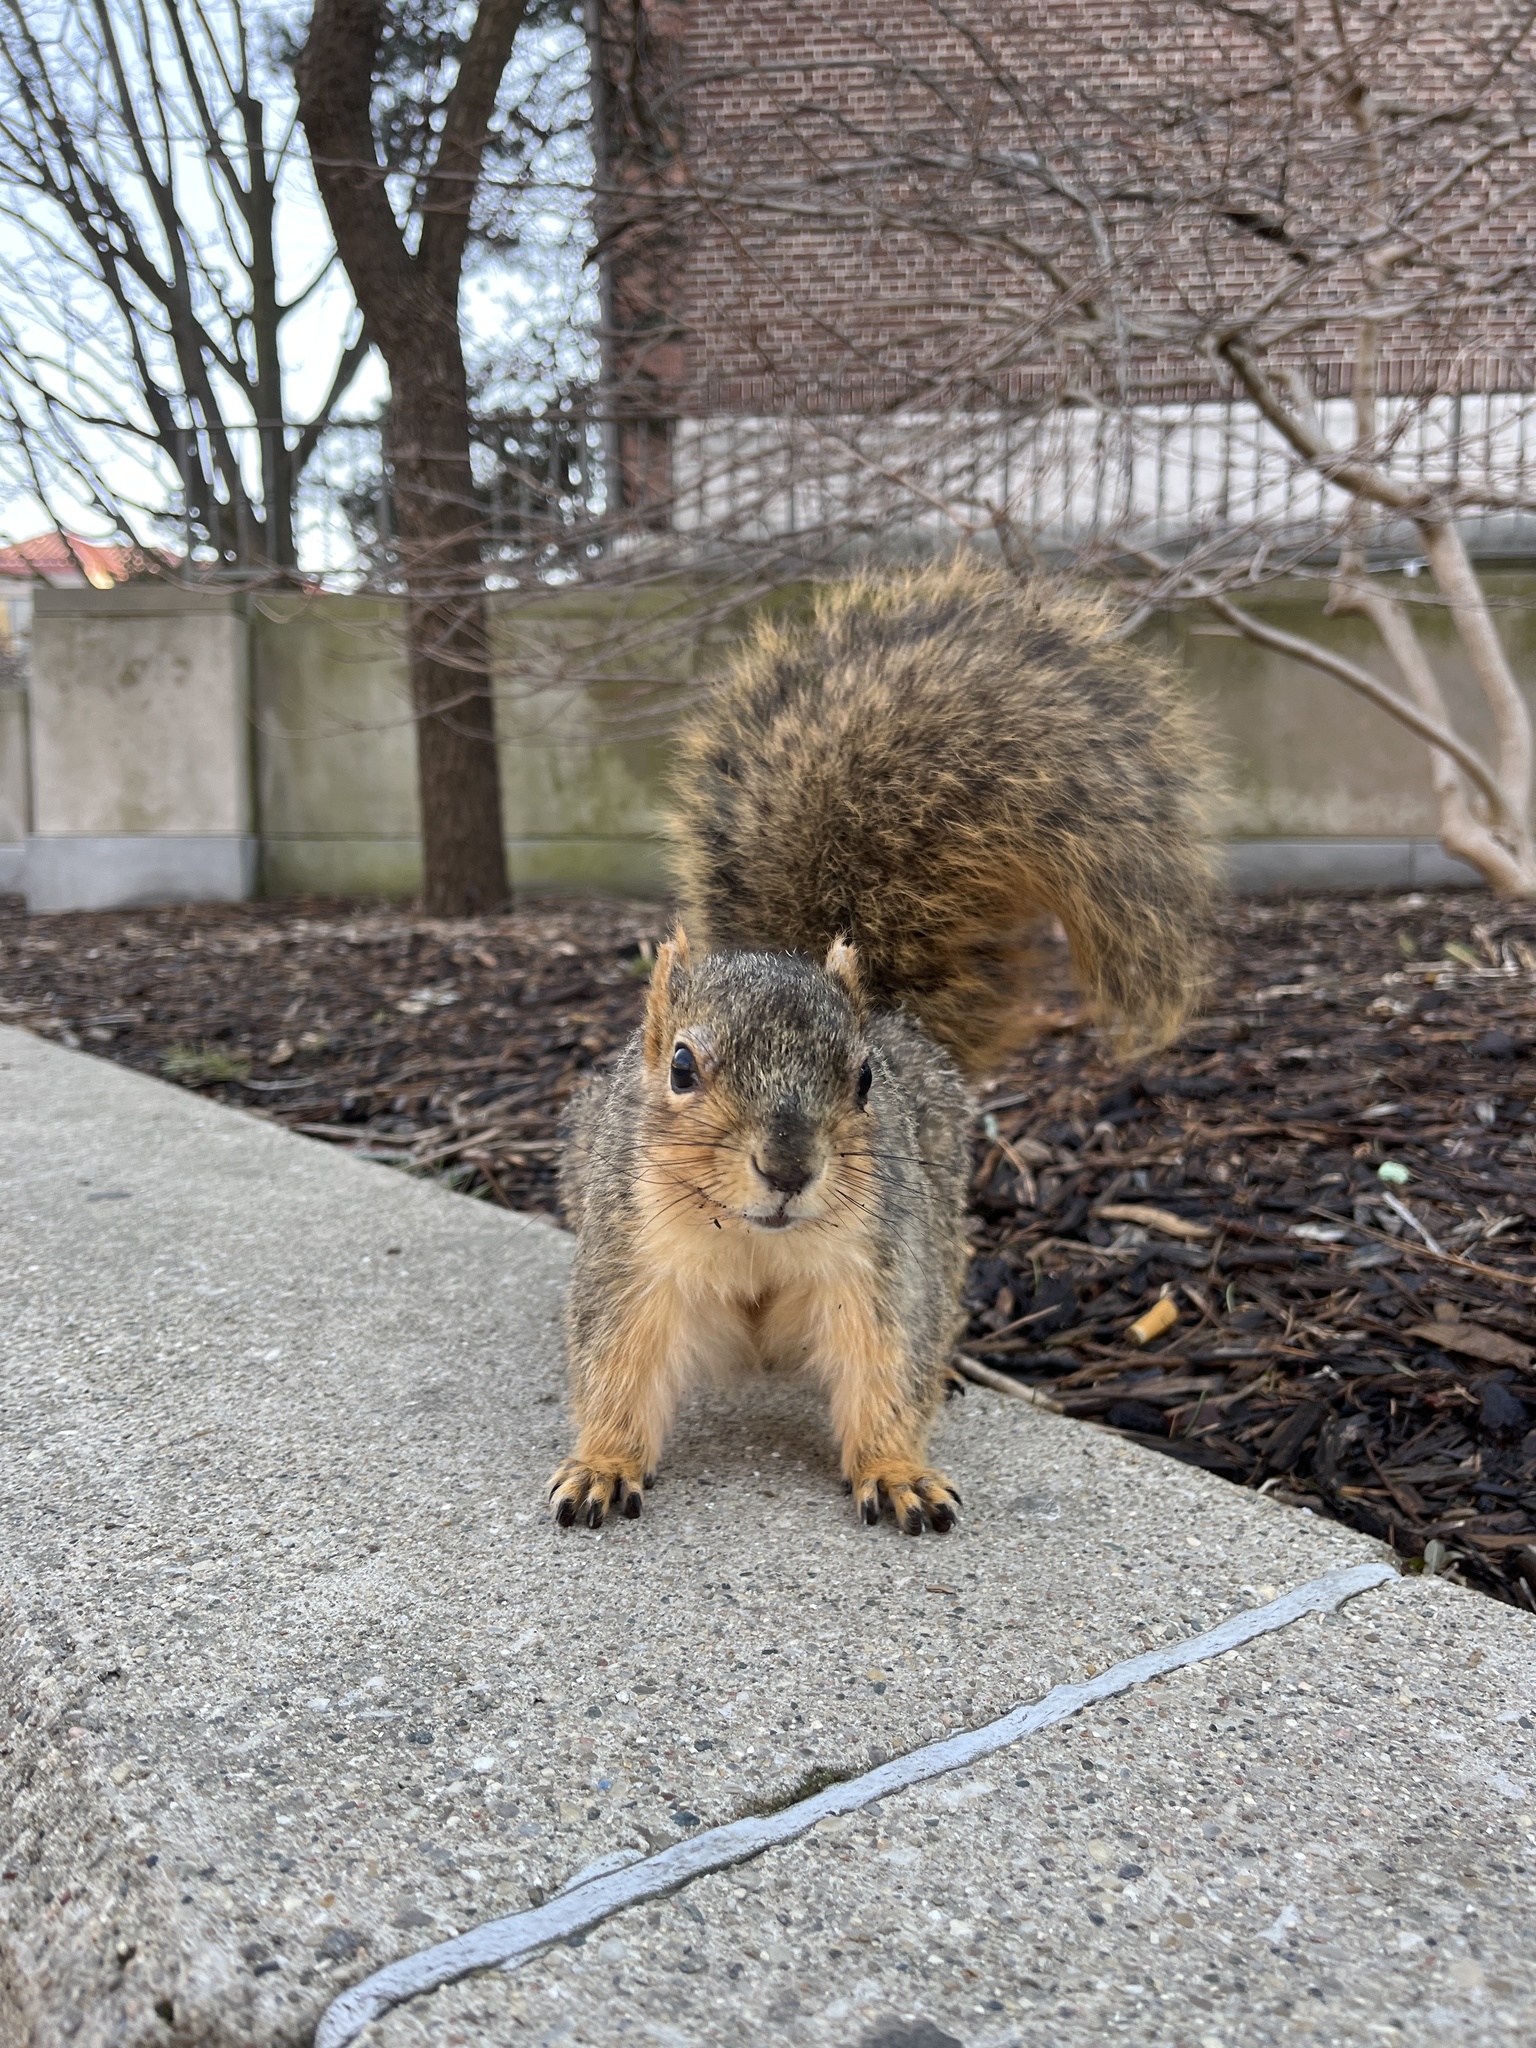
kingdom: Animalia
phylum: Chordata
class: Mammalia
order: Rodentia
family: Sciuridae
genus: Sciurus
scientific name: Sciurus niger
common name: Fox squirrel
